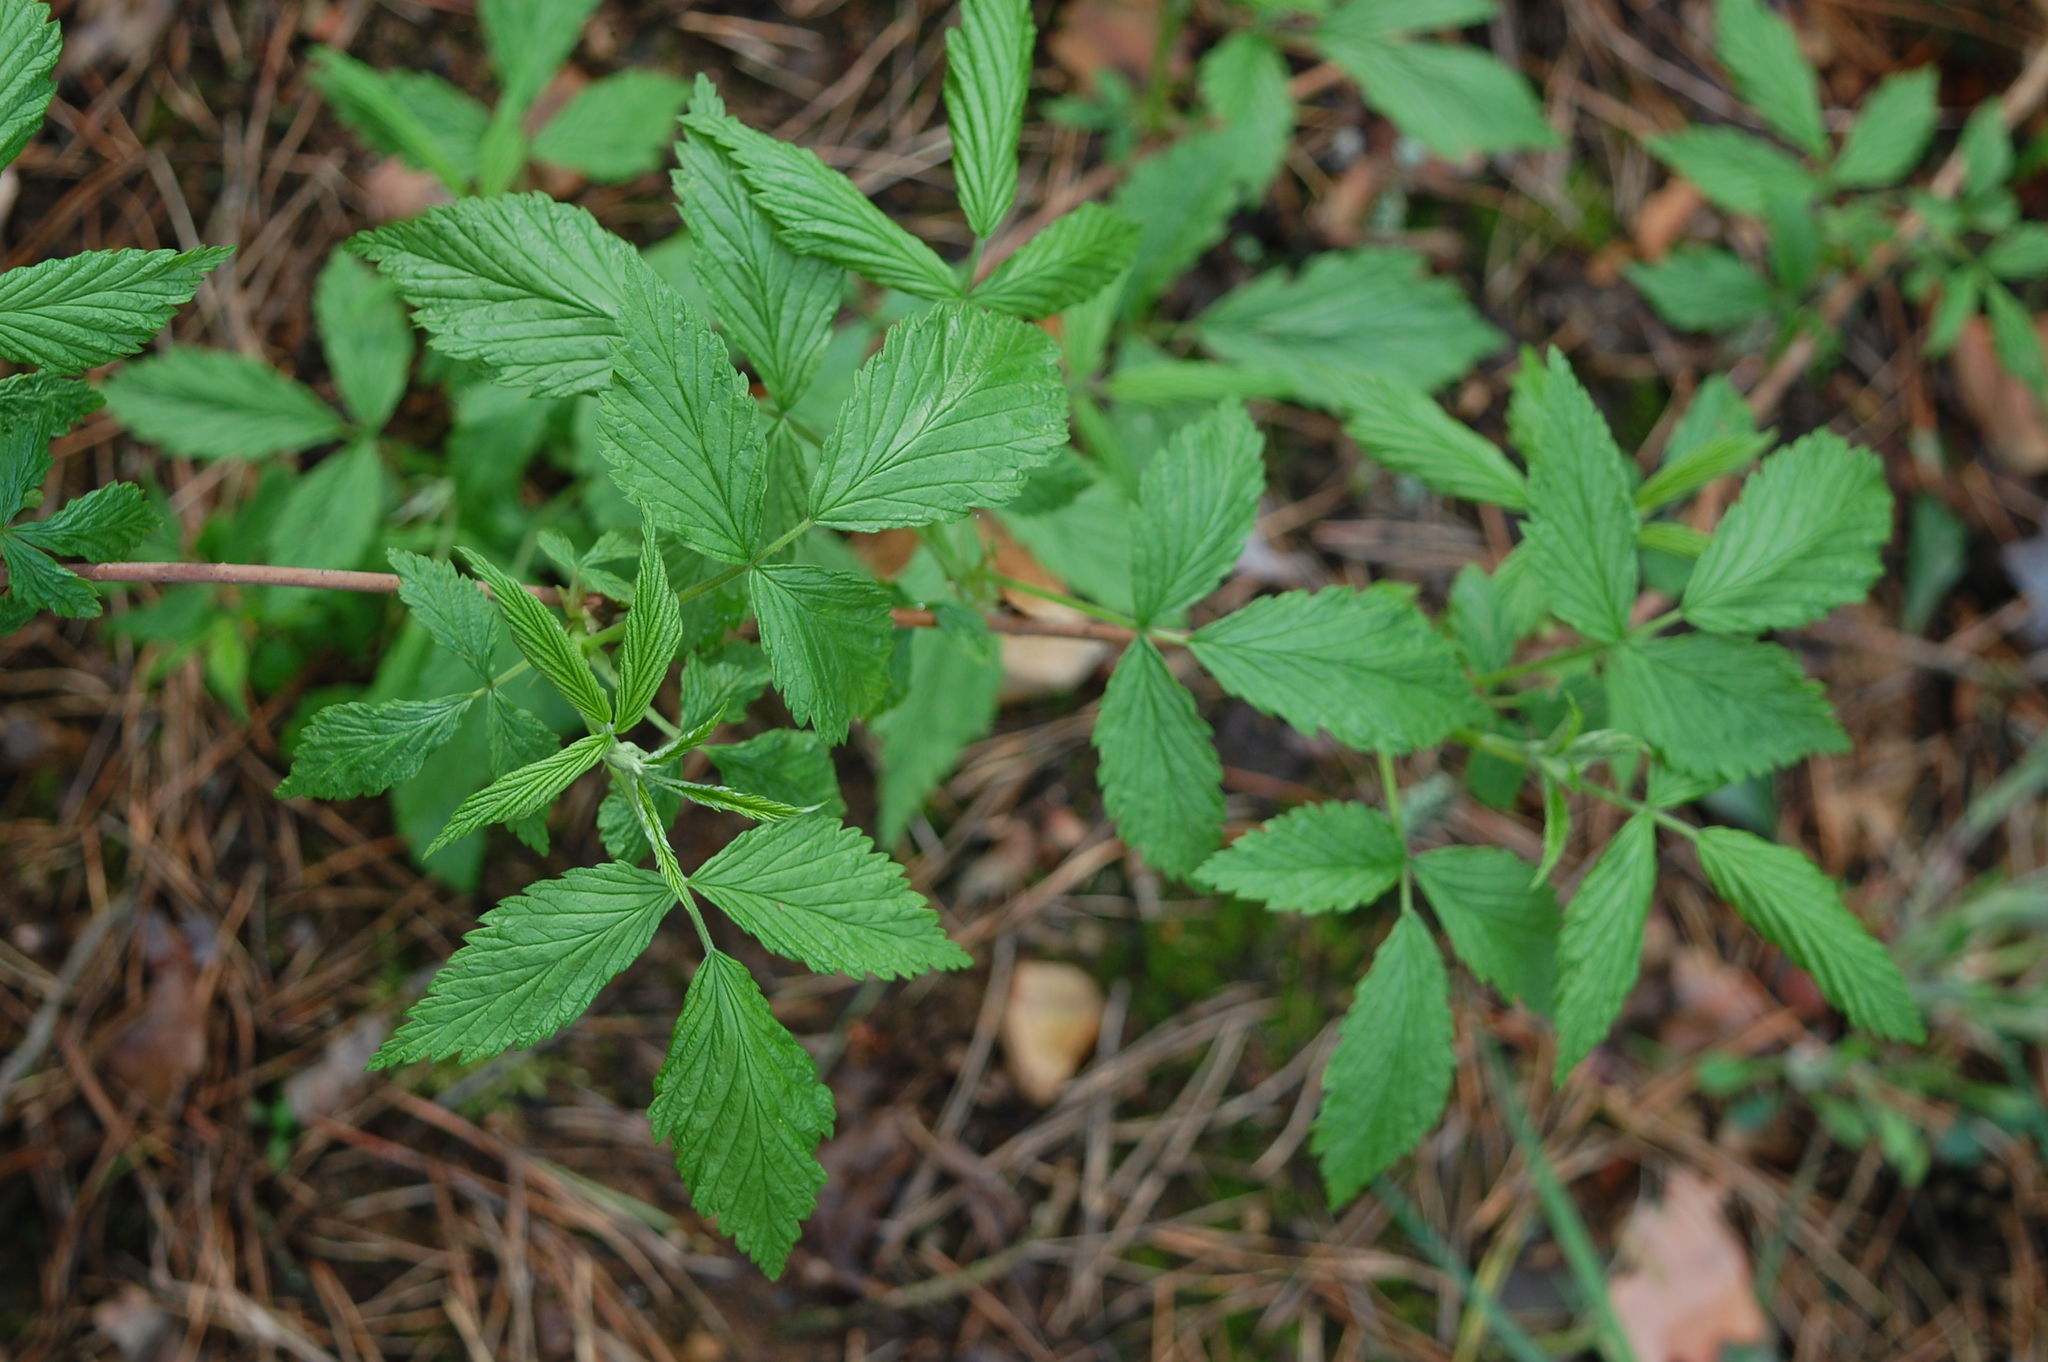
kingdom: Plantae
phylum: Tracheophyta
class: Magnoliopsida
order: Rosales
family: Rosaceae
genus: Rubus
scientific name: Rubus idaeus
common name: Raspberry
